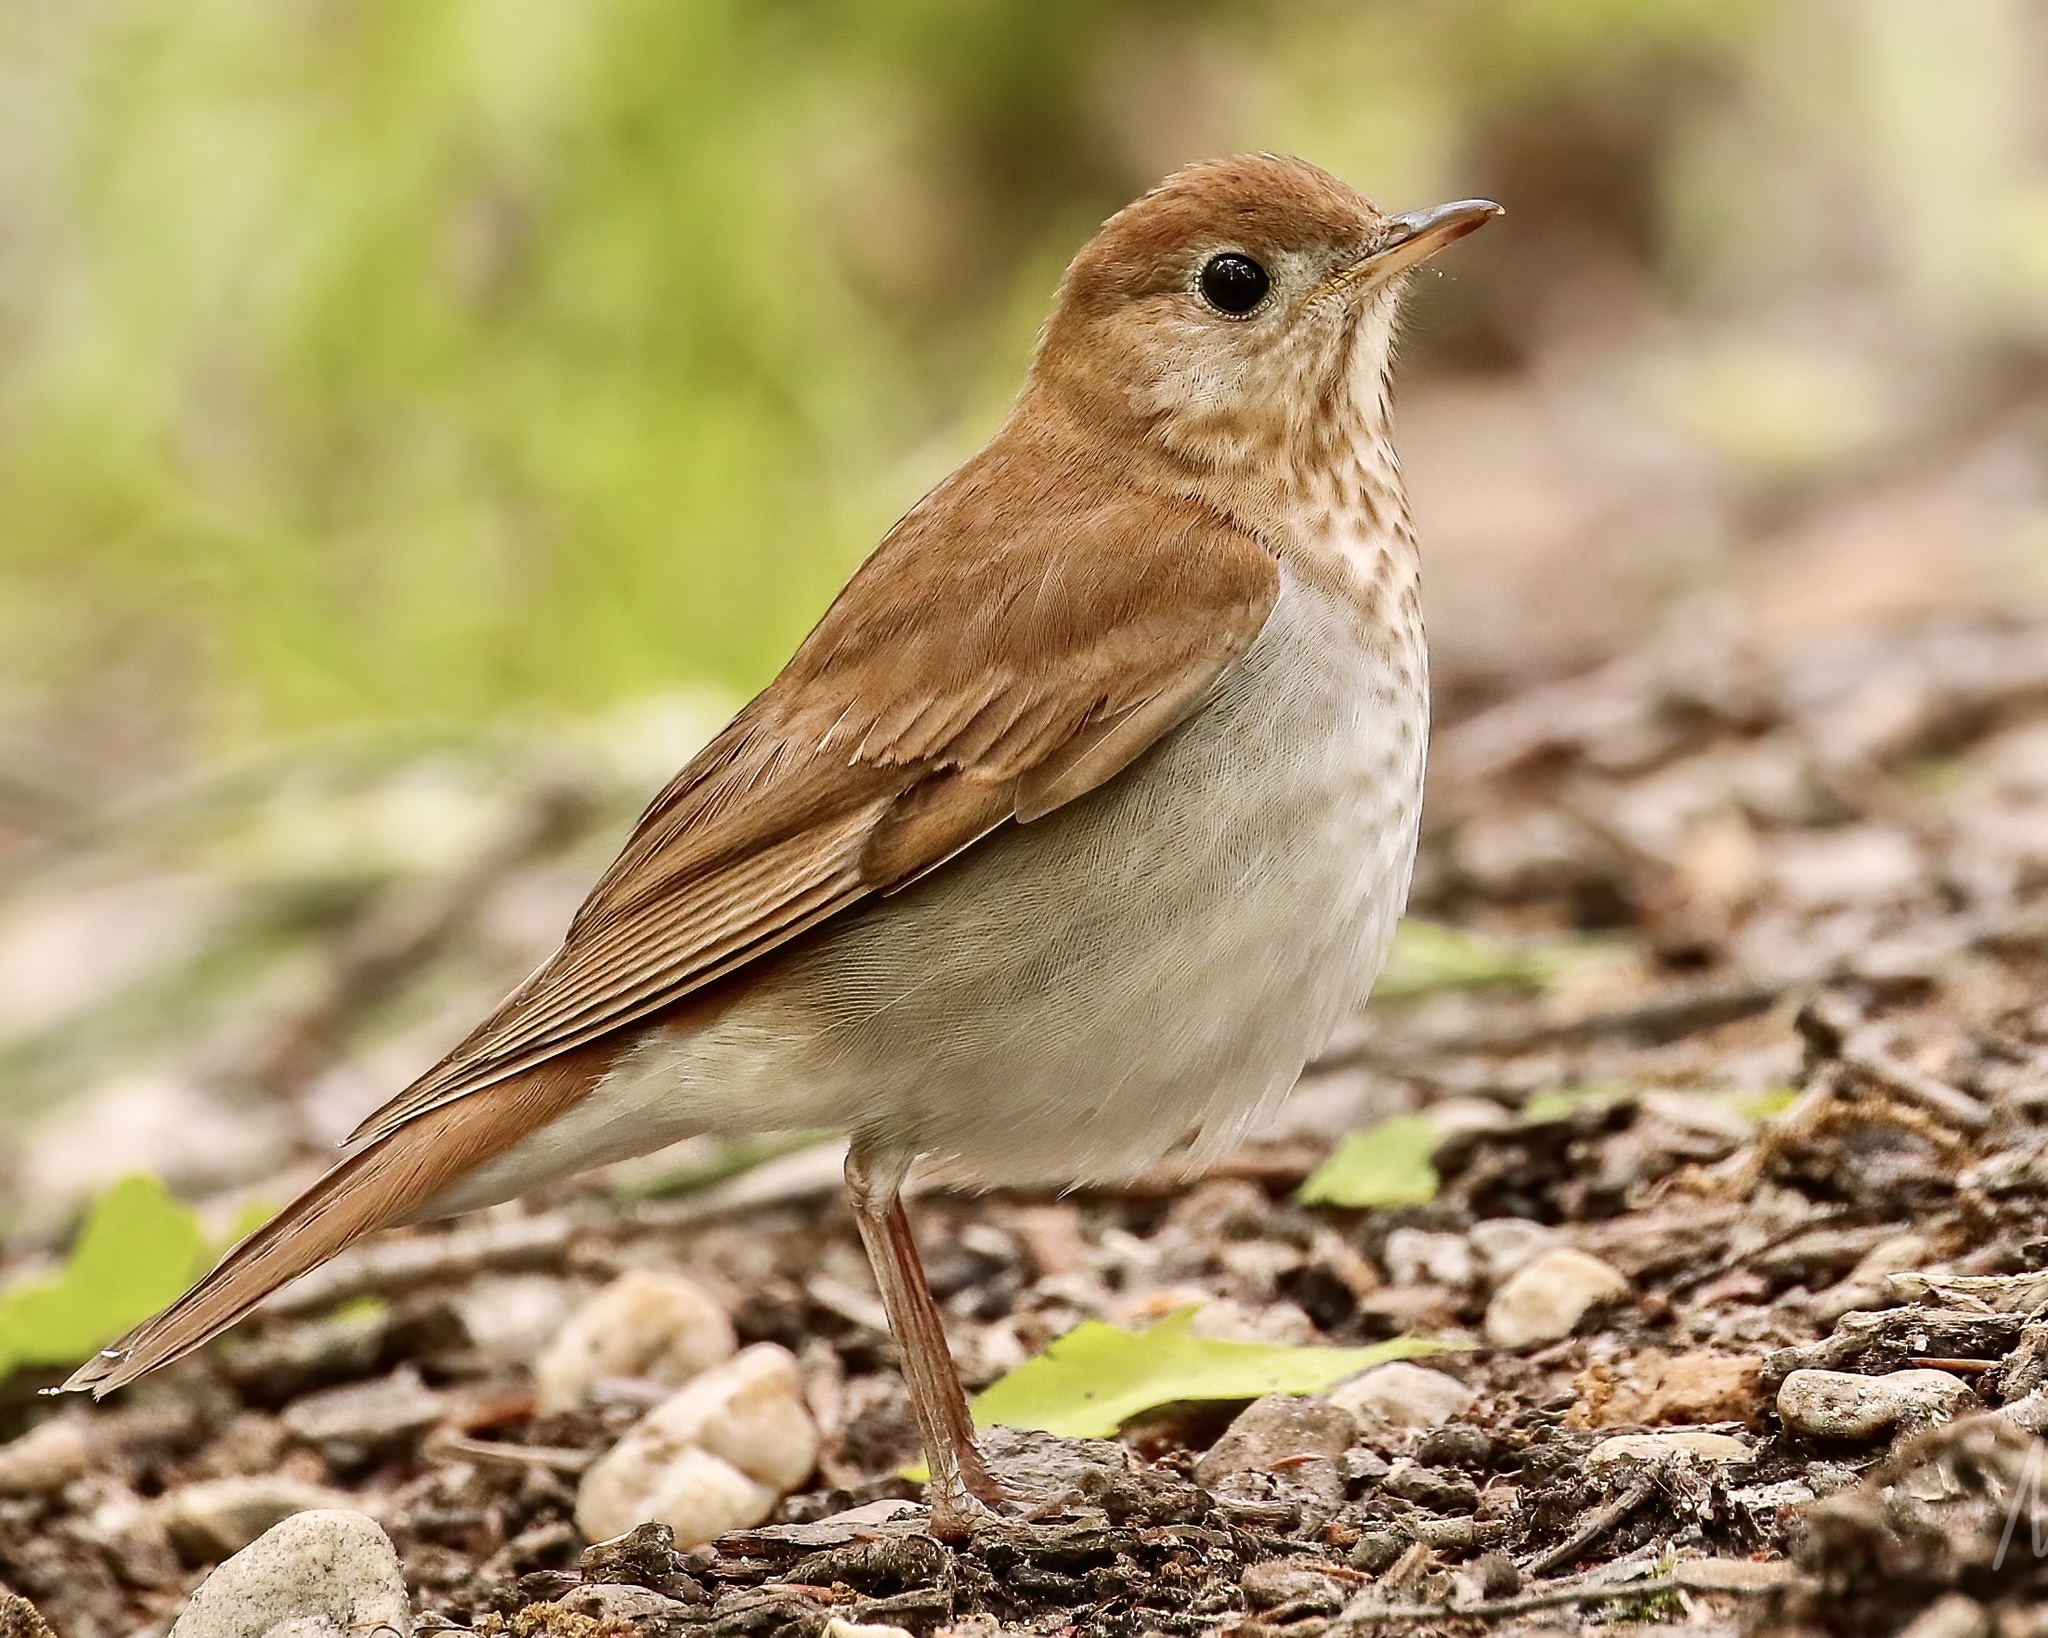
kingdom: Animalia
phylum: Chordata
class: Aves
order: Passeriformes
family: Turdidae
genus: Catharus
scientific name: Catharus fuscescens
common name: Veery
